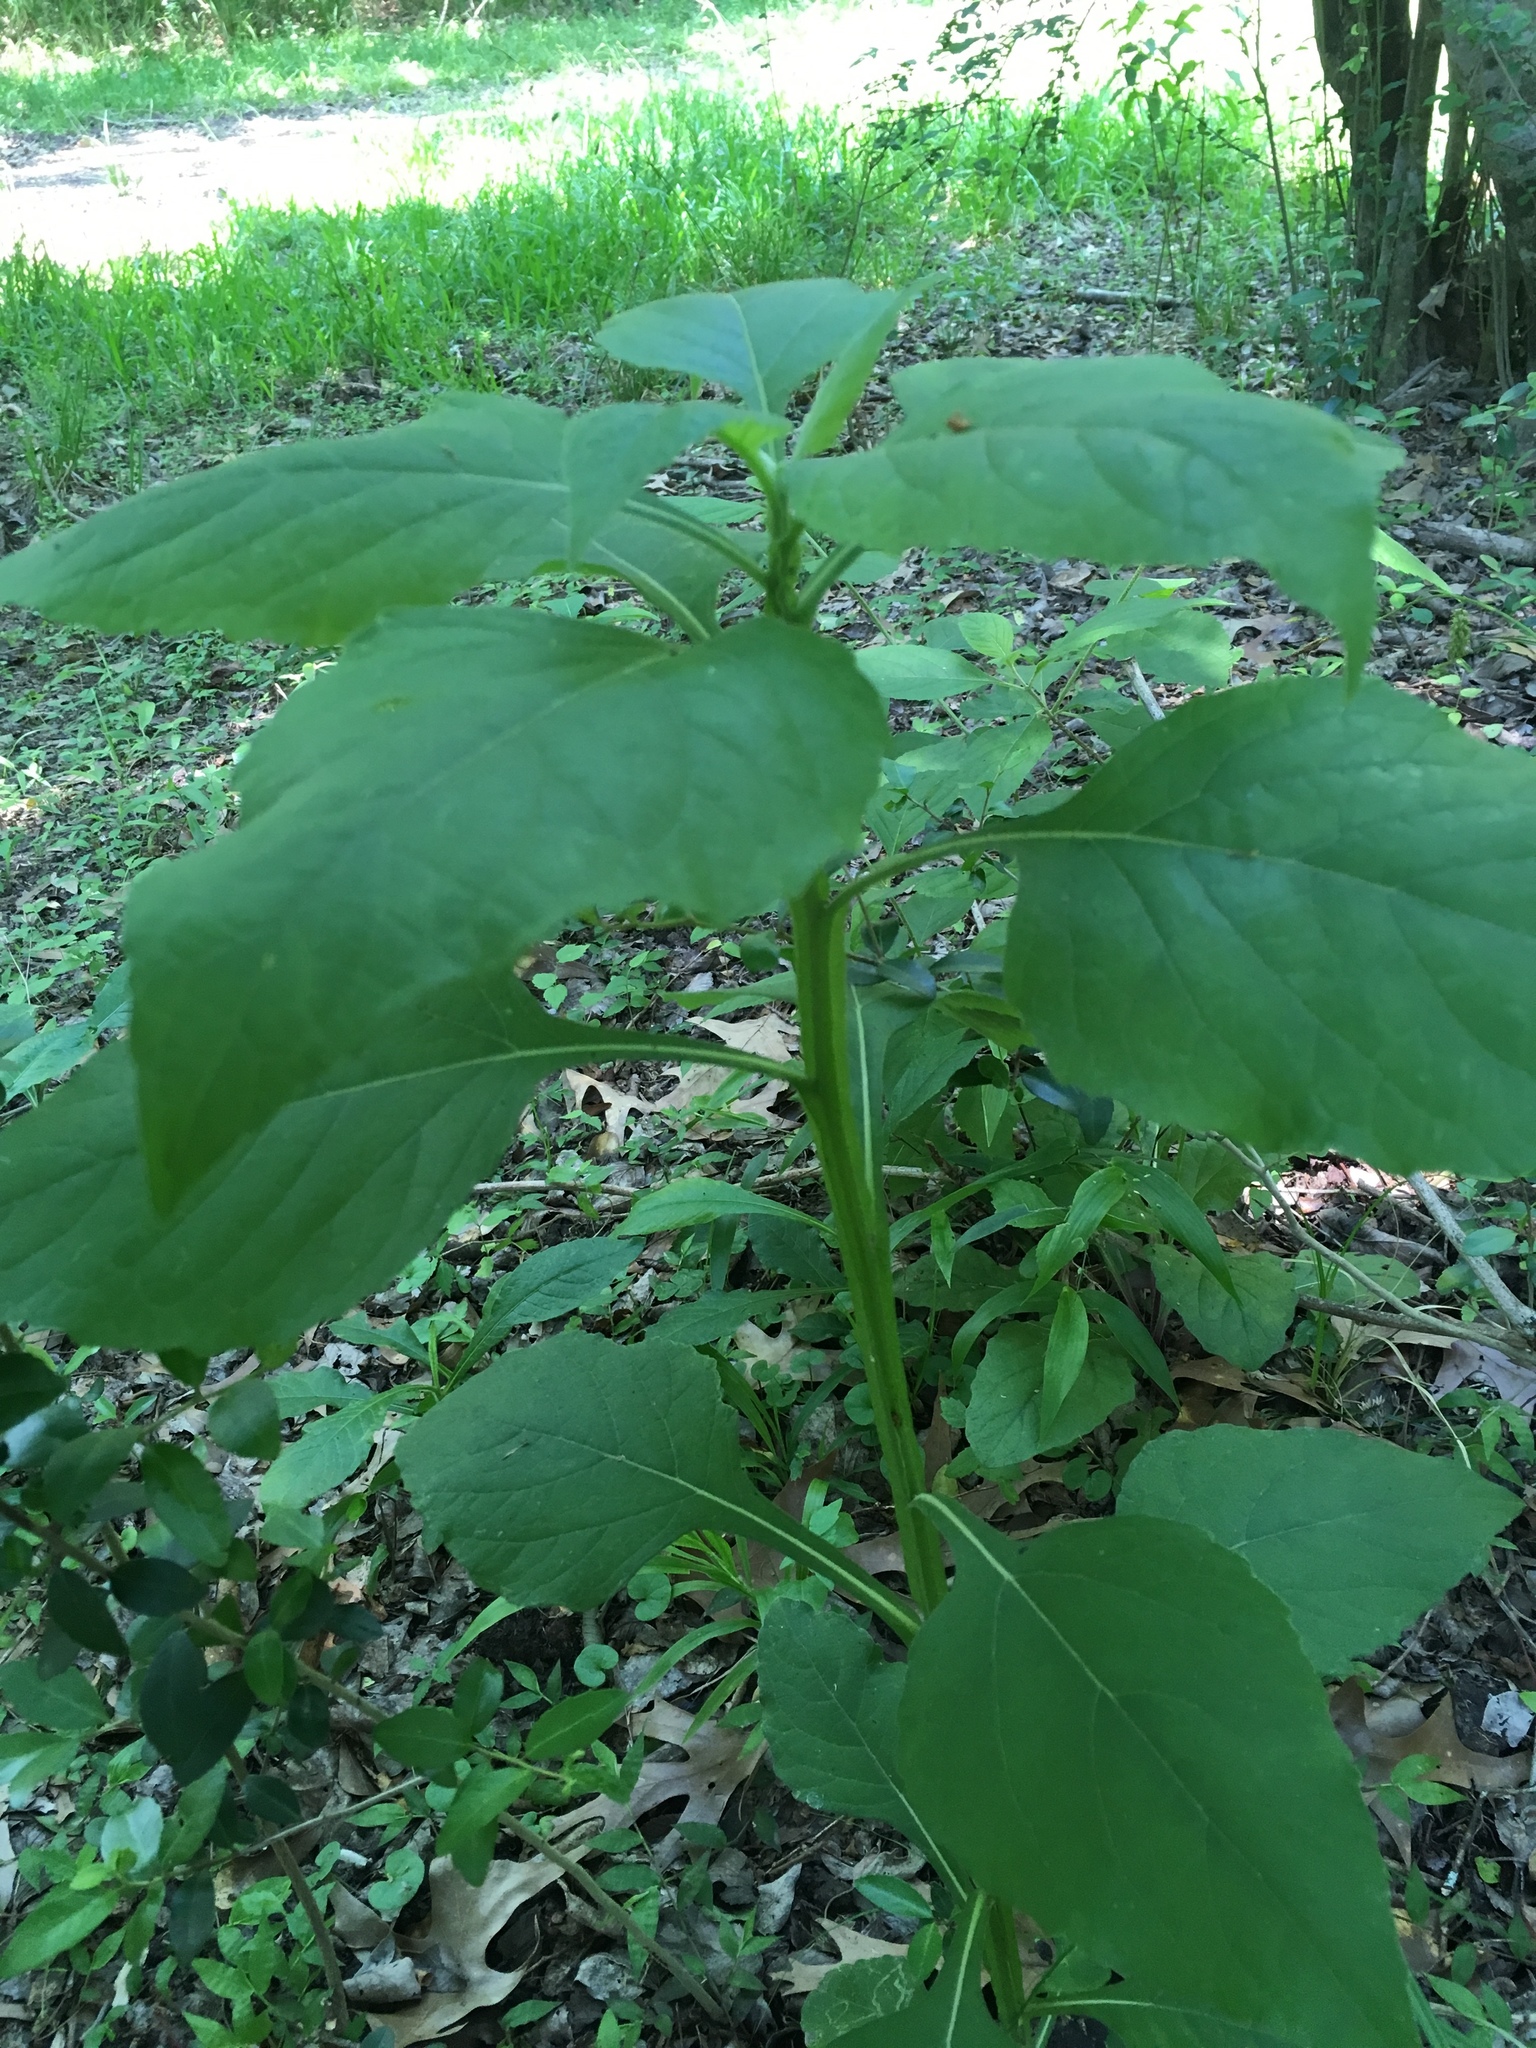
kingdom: Plantae
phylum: Tracheophyta
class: Magnoliopsida
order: Asterales
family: Asteraceae
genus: Verbesina
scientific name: Verbesina virginica
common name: Frostweed
